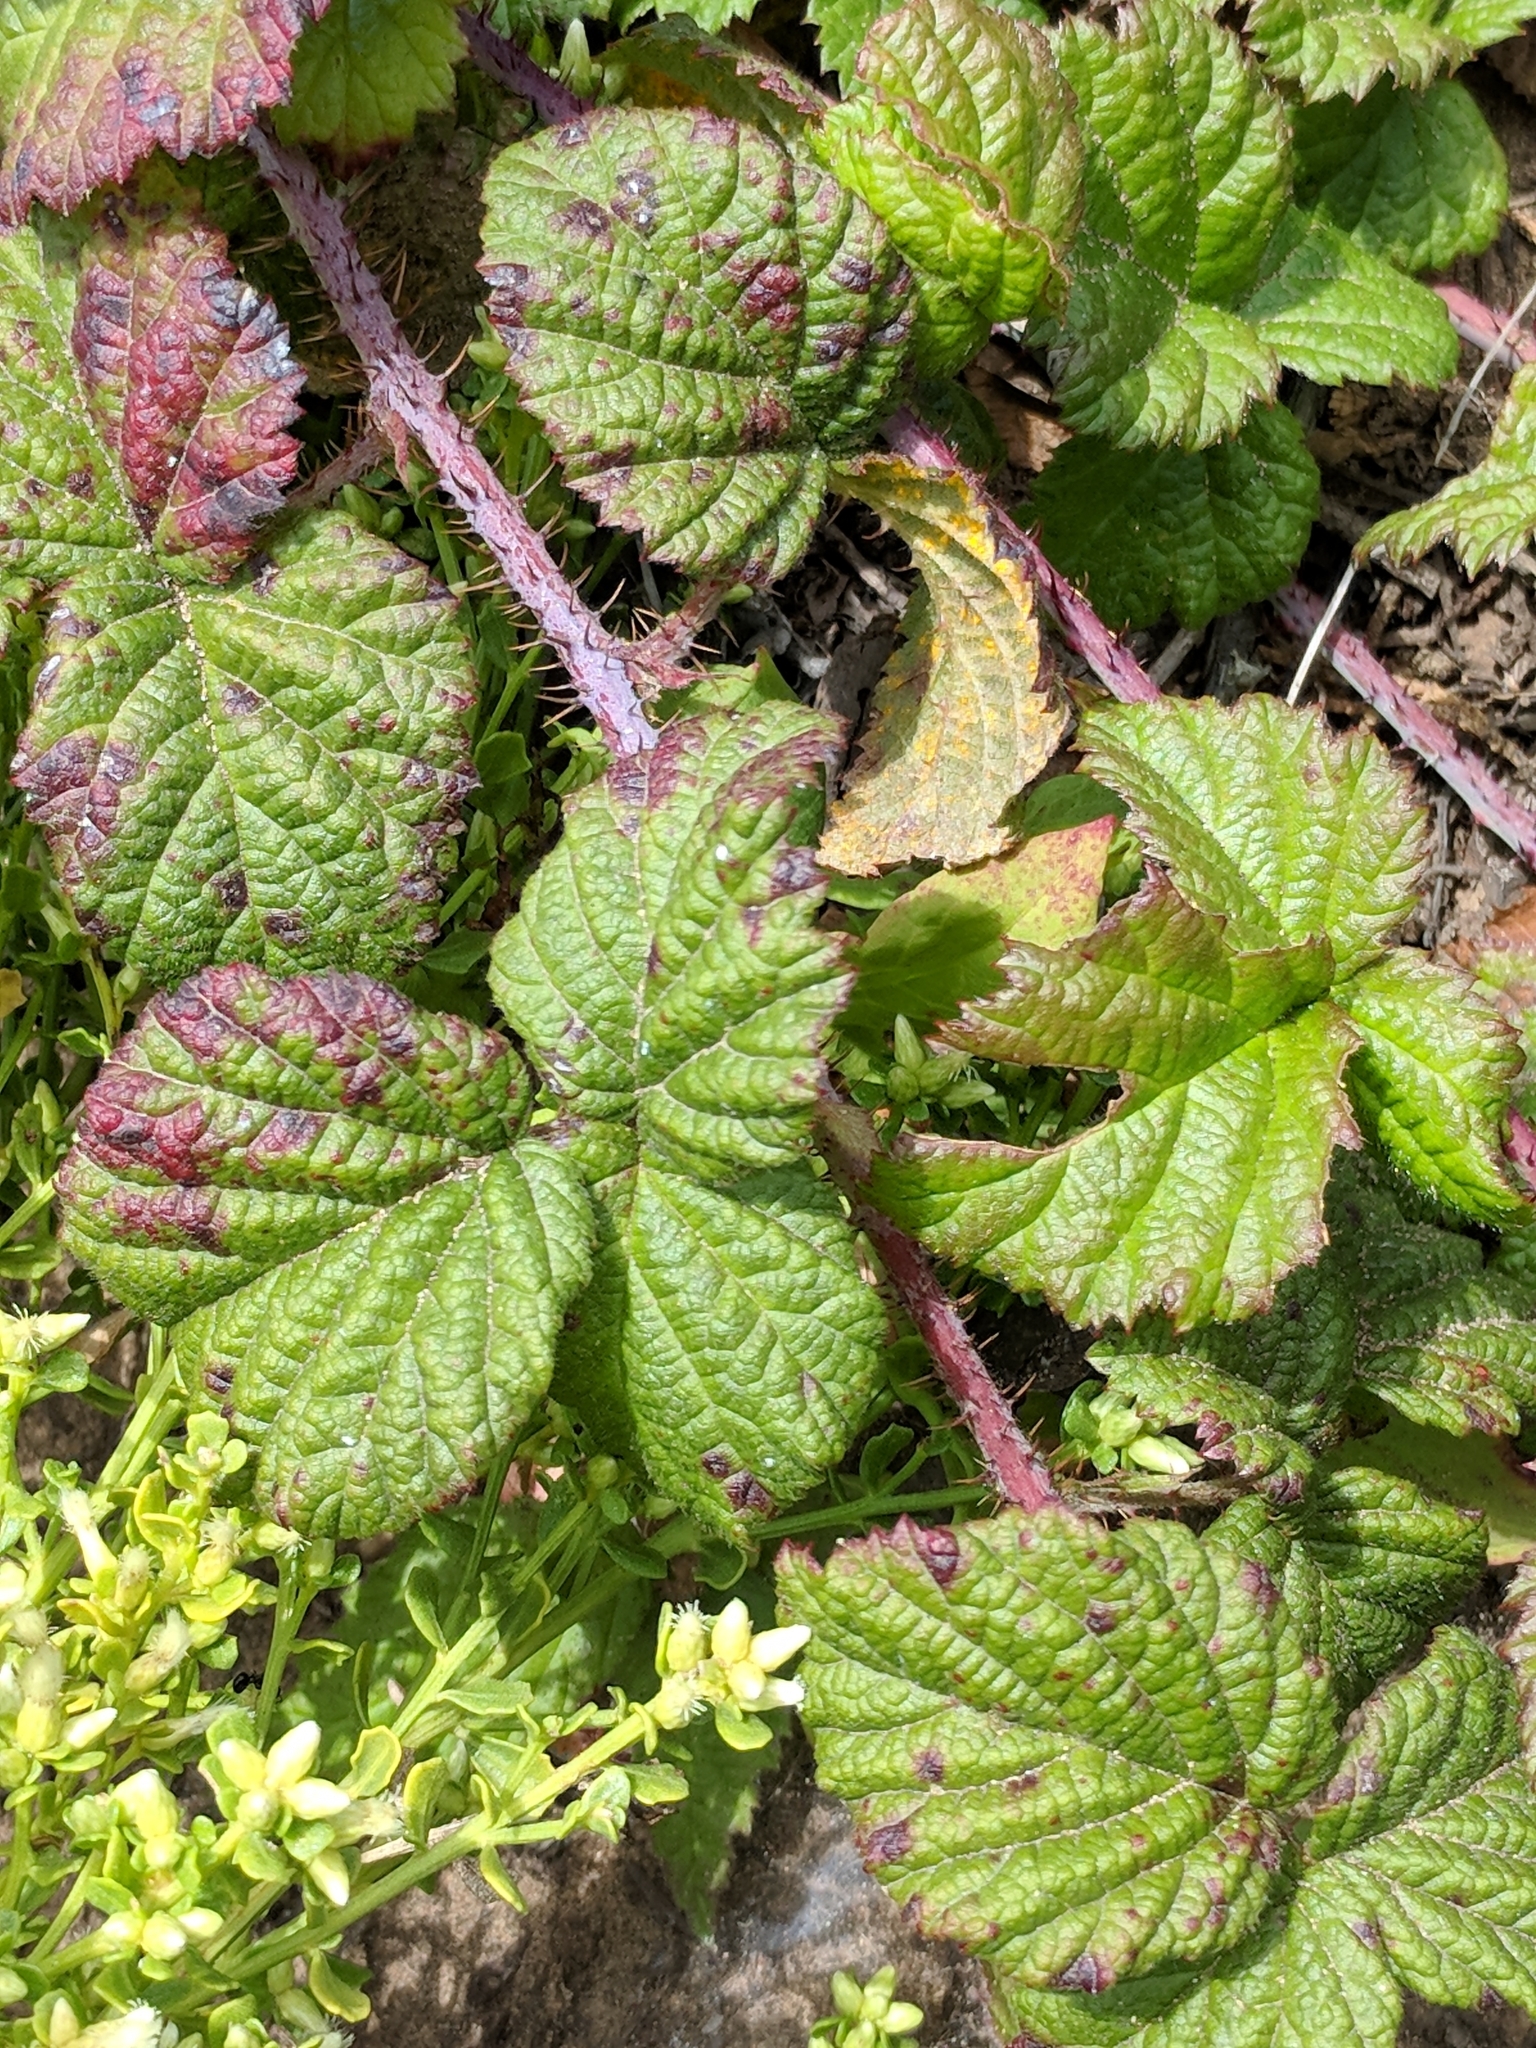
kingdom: Plantae
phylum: Tracheophyta
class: Magnoliopsida
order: Rosales
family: Rosaceae
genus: Rubus
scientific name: Rubus ursinus
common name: Pacific blackberry
